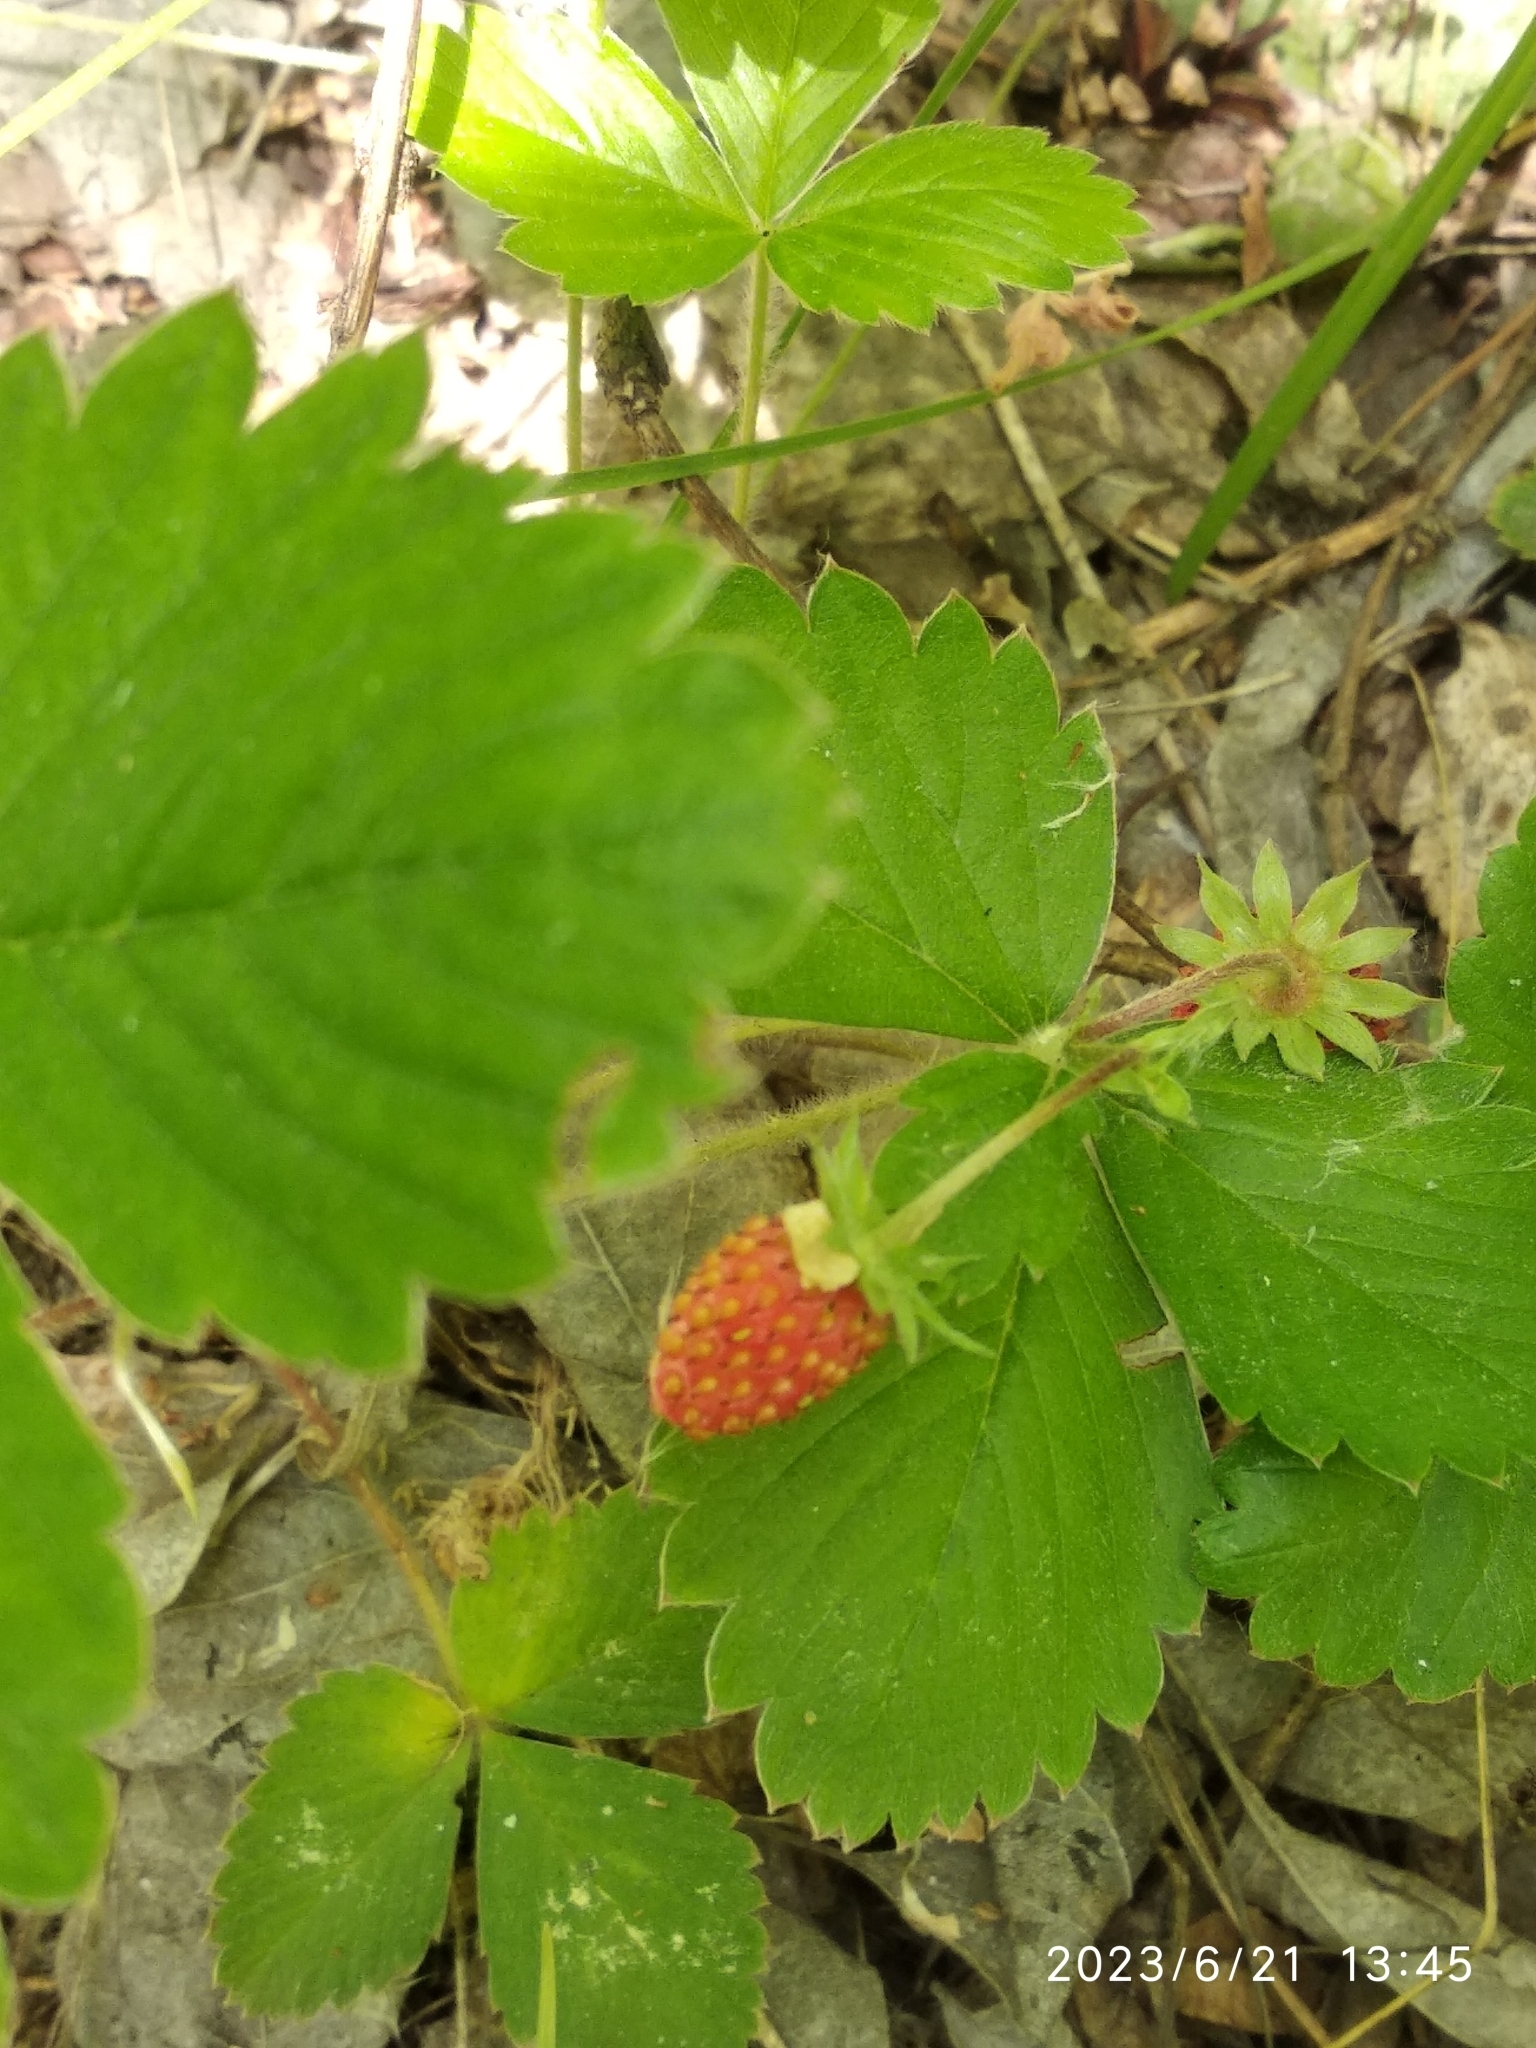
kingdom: Plantae
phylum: Tracheophyta
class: Magnoliopsida
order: Rosales
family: Rosaceae
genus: Fragaria
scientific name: Fragaria vesca
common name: Wild strawberry
